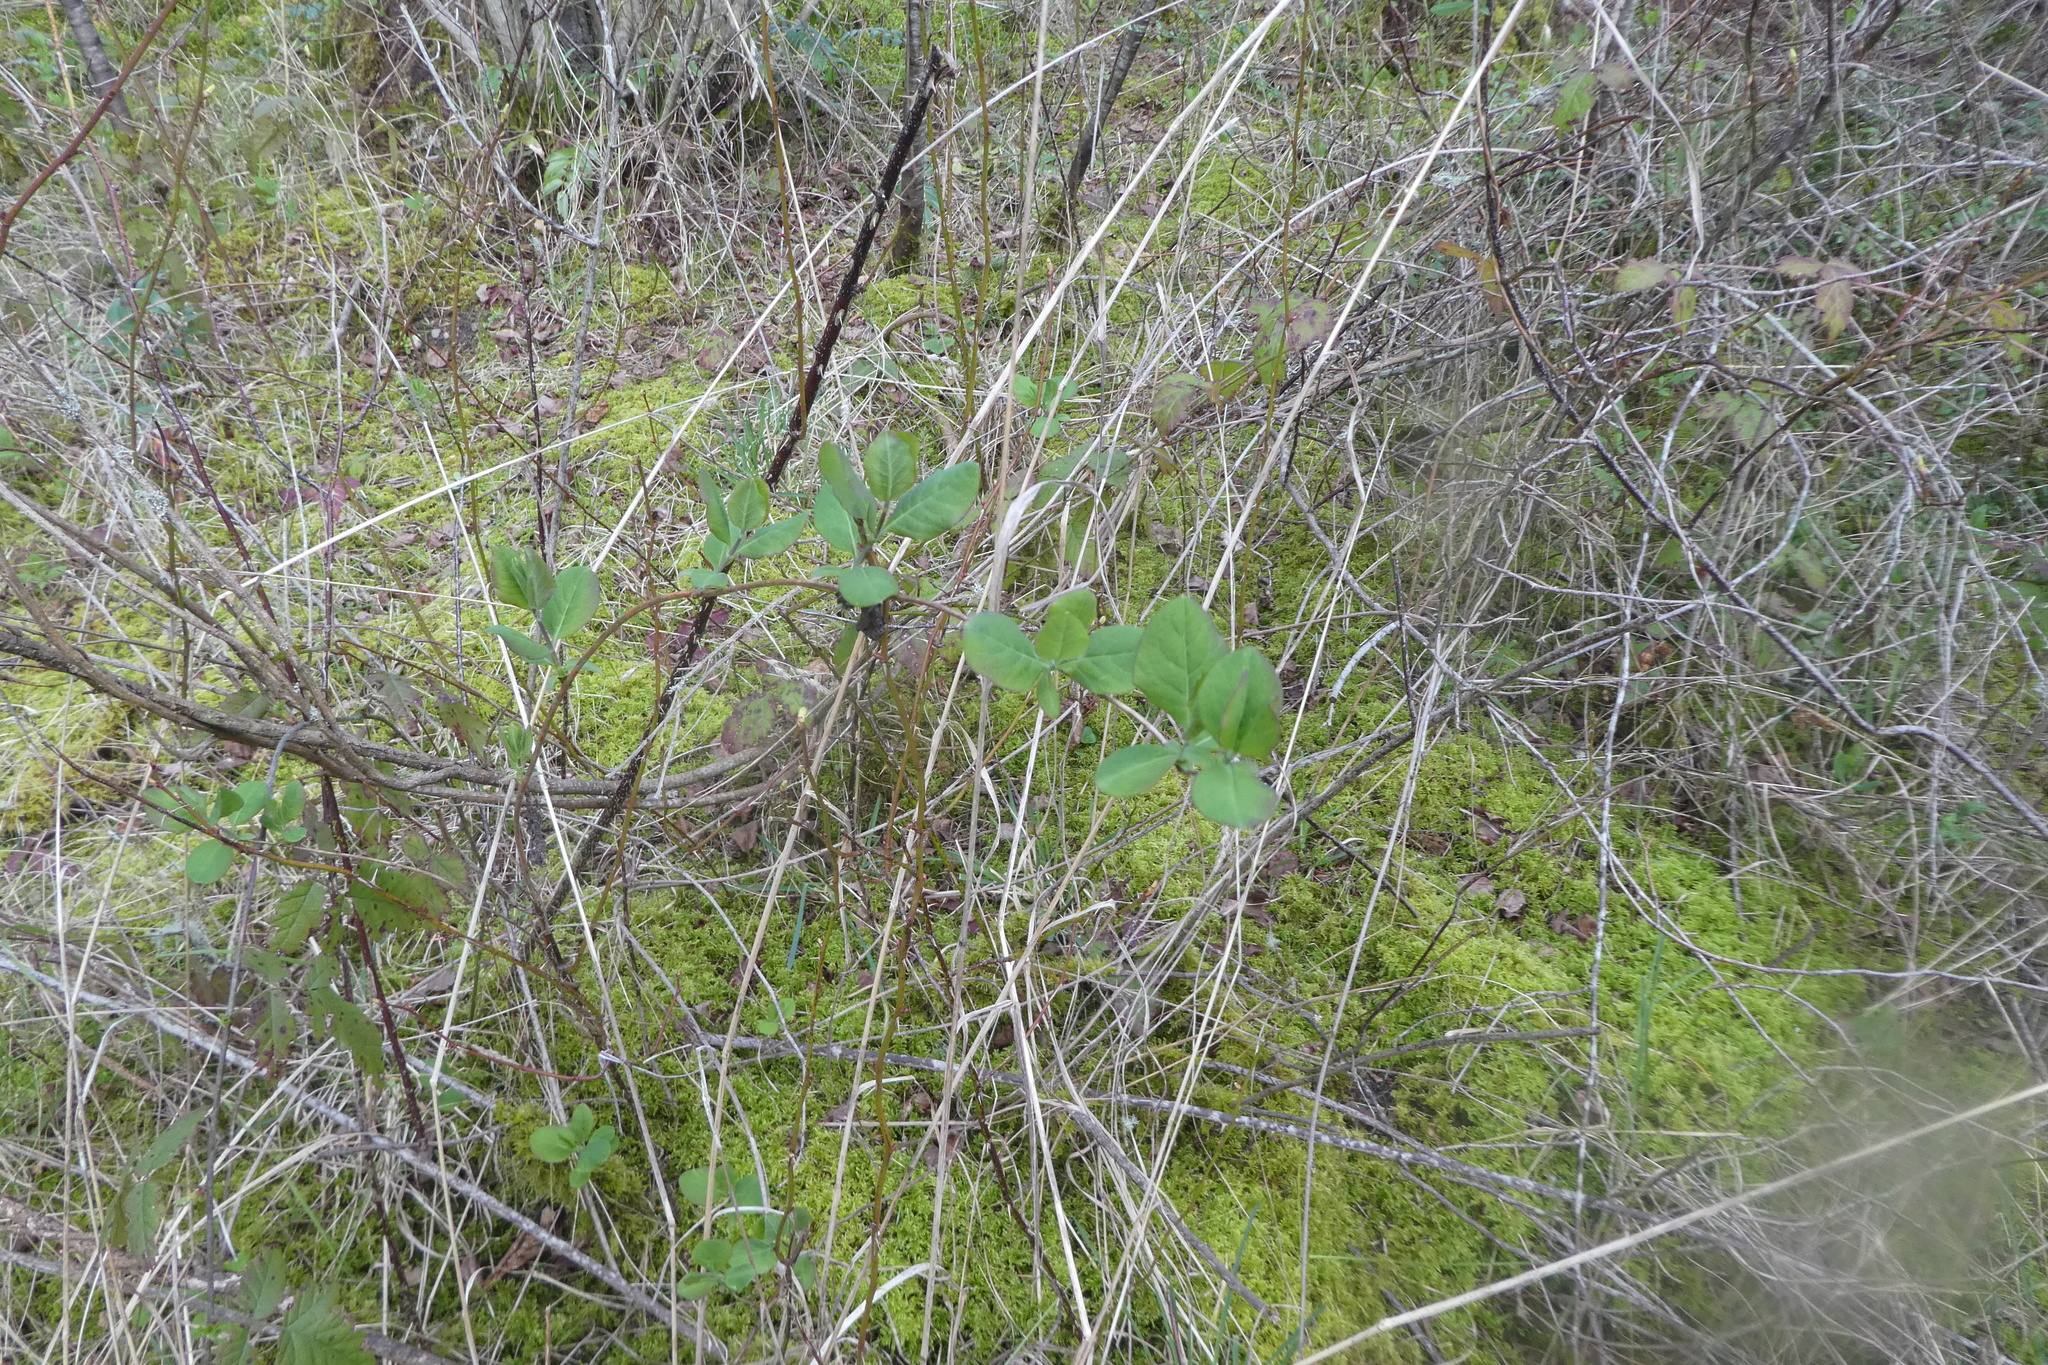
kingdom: Plantae
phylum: Tracheophyta
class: Magnoliopsida
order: Dipsacales
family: Caprifoliaceae
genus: Lonicera
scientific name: Lonicera ciliosa
